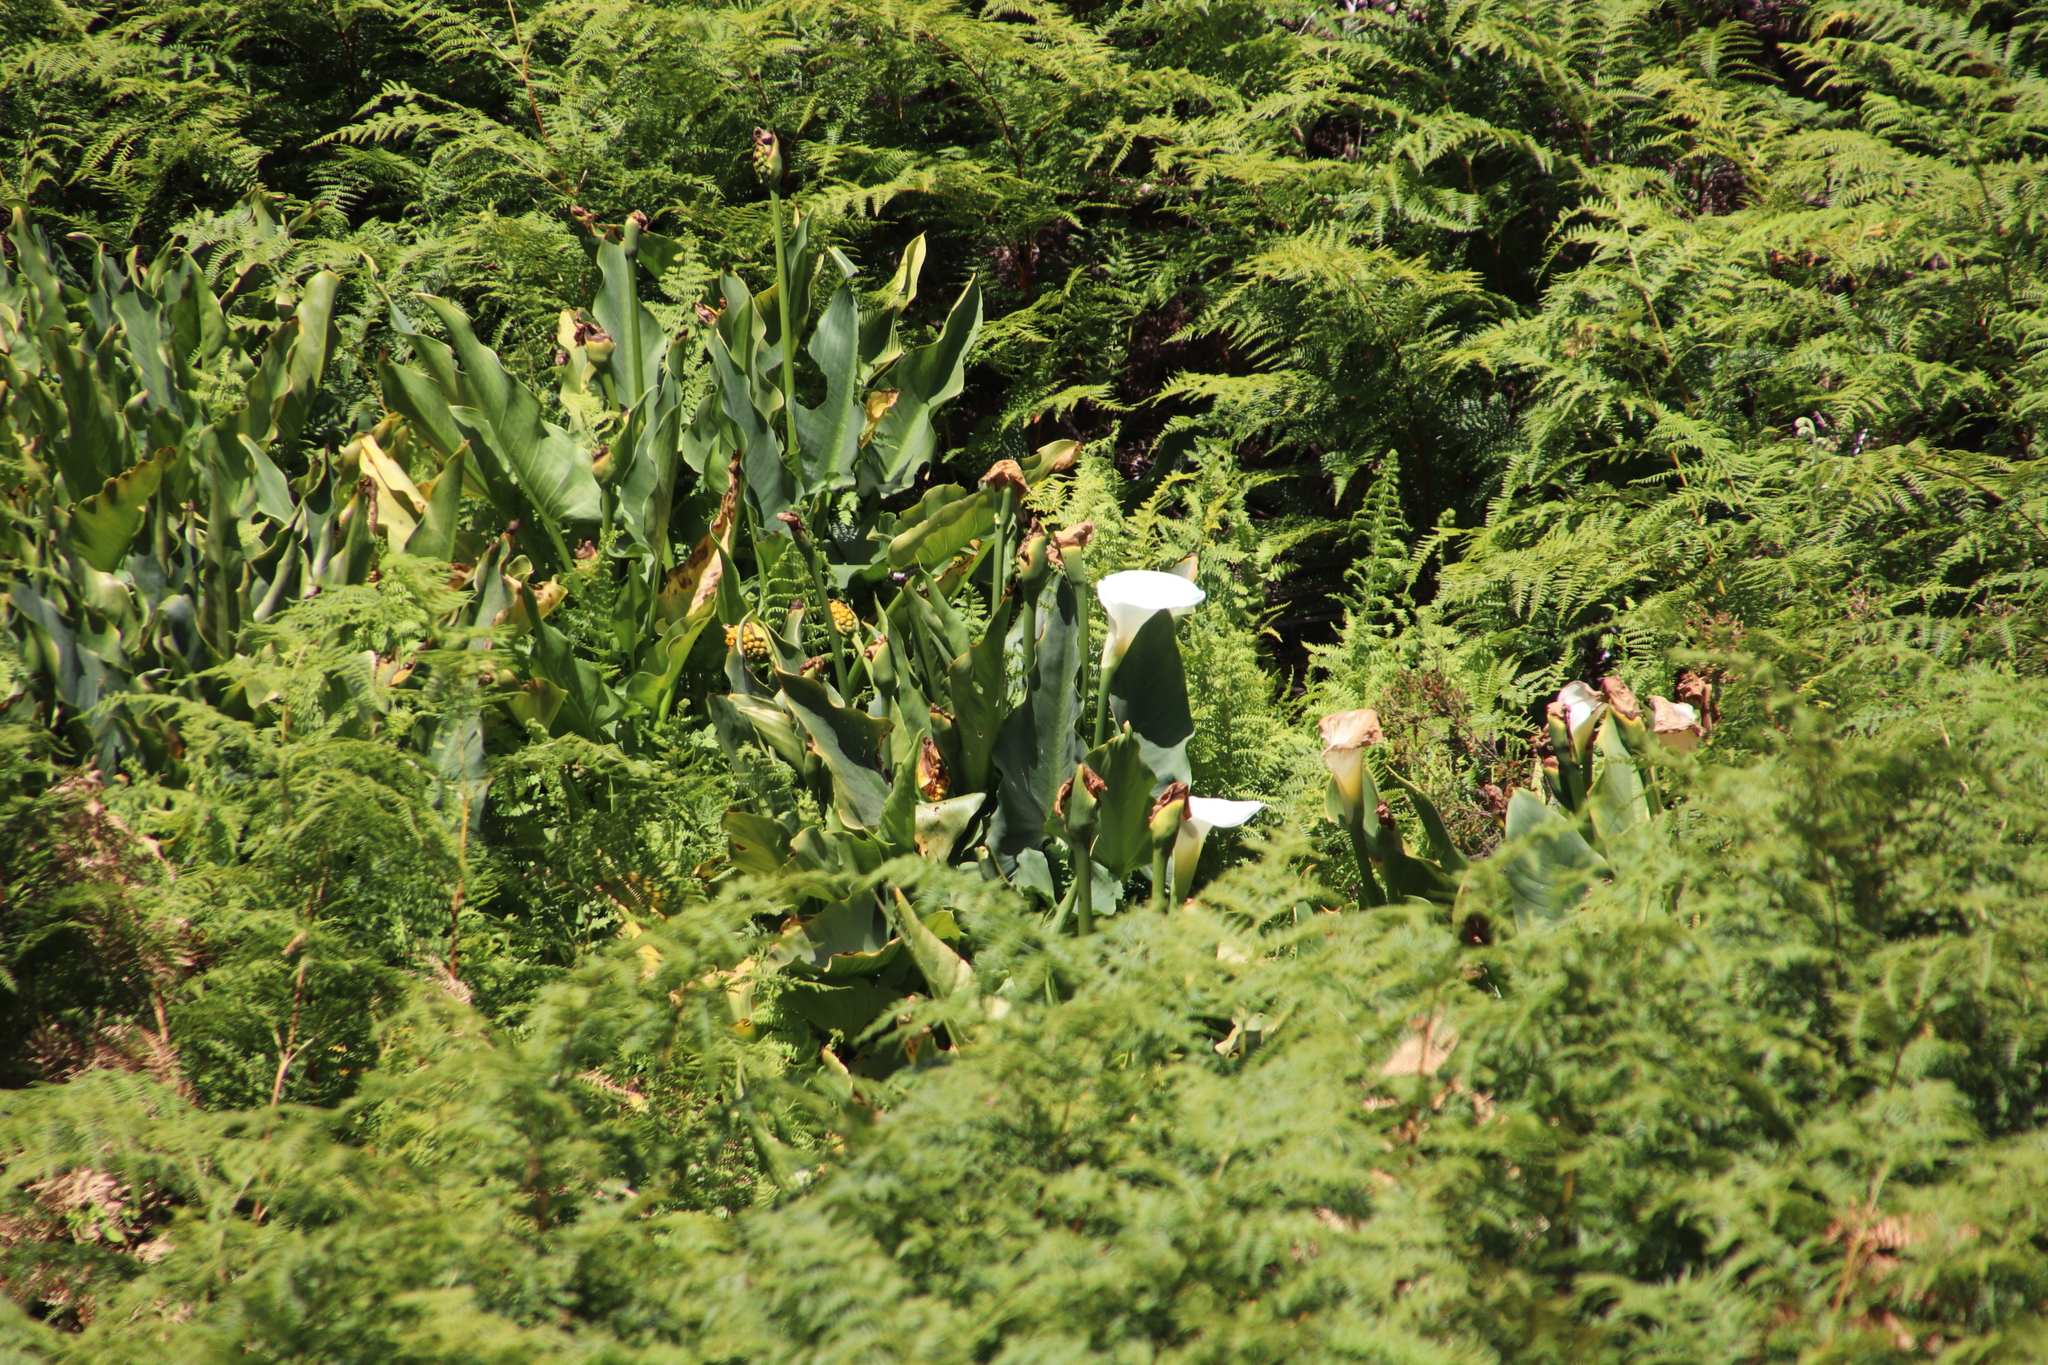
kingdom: Plantae
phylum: Tracheophyta
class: Liliopsida
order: Alismatales
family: Araceae
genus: Zantedeschia
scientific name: Zantedeschia aethiopica
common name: Altar-lily
